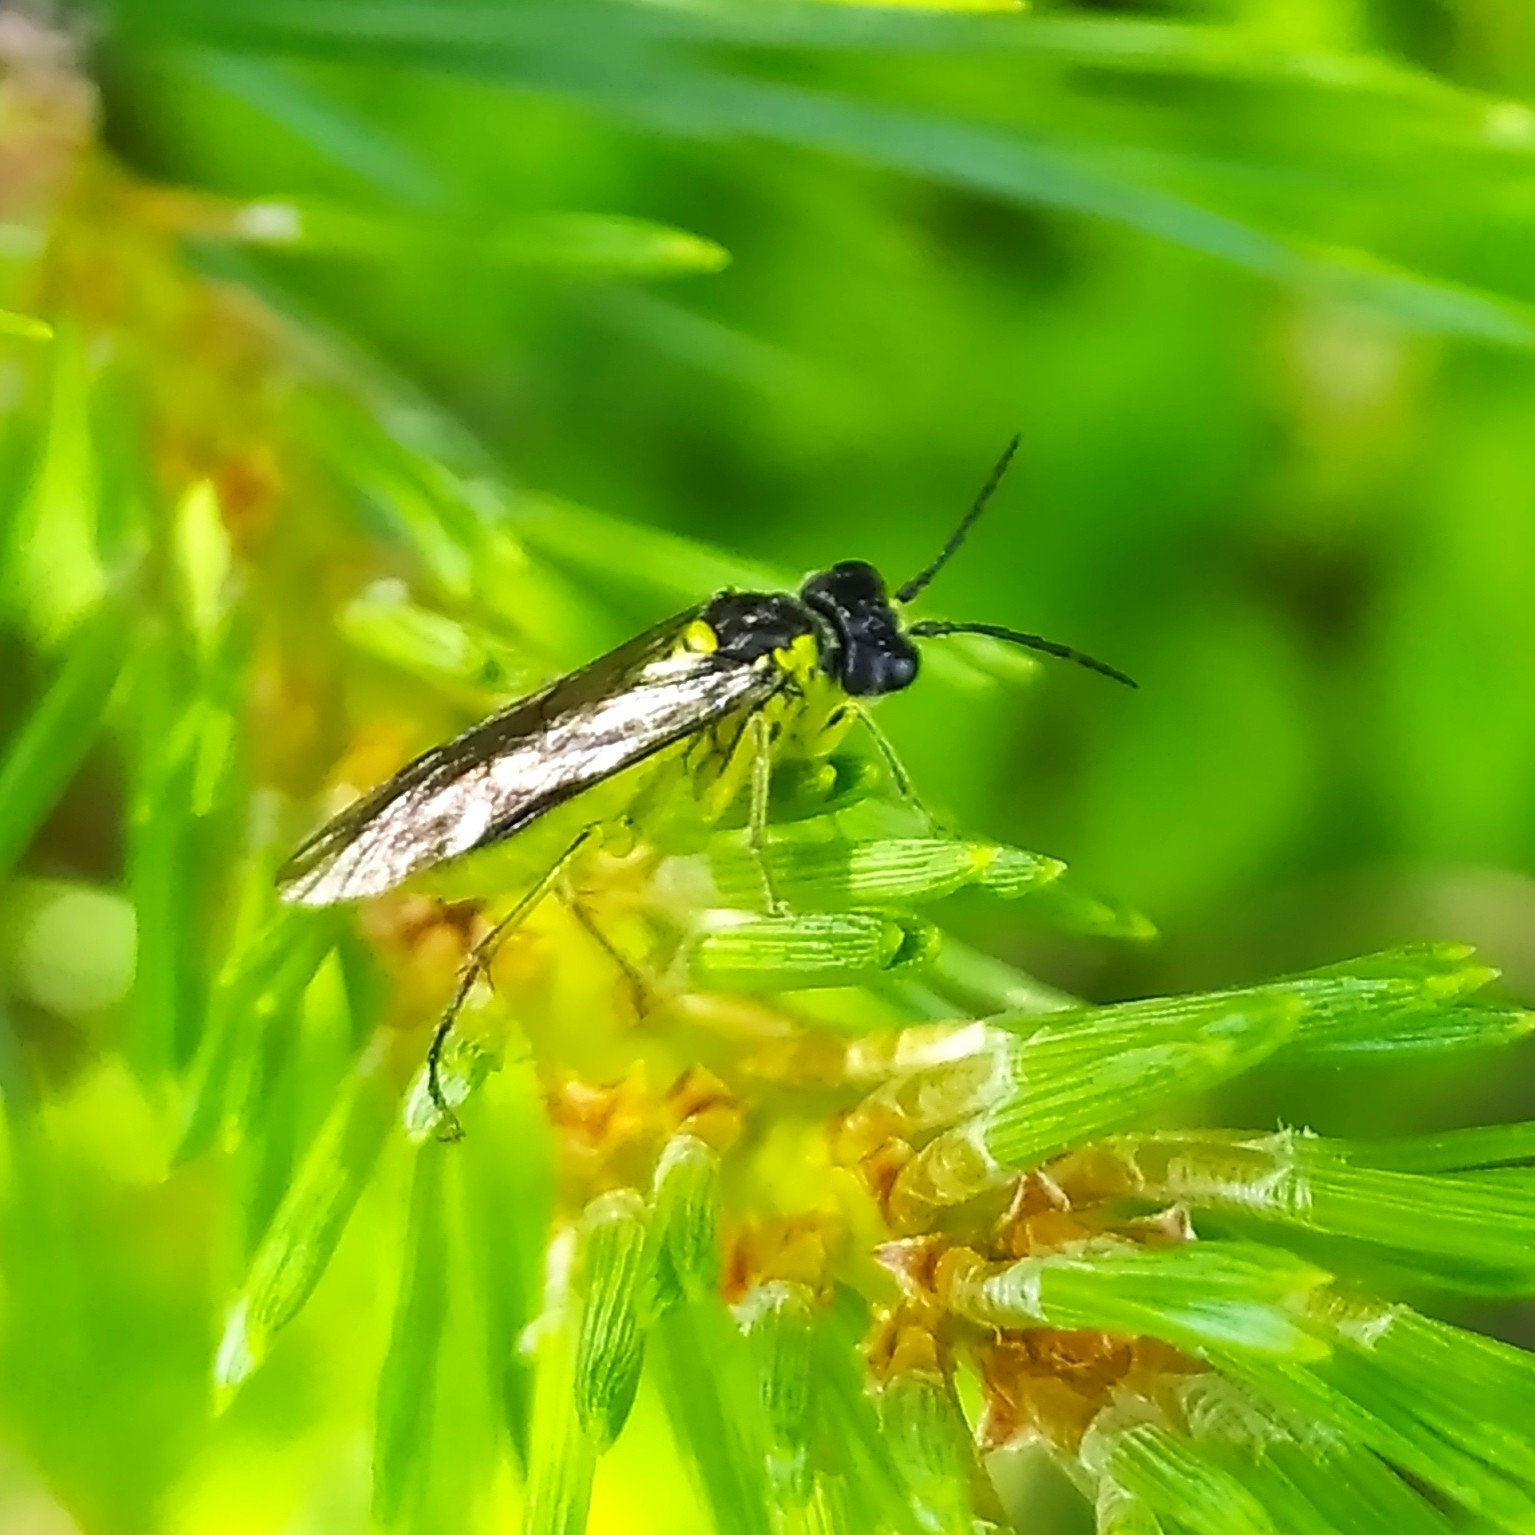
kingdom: Animalia
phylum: Arthropoda
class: Insecta
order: Hymenoptera
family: Tenthredinidae
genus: Tenthredo
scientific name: Tenthredo mesomela
